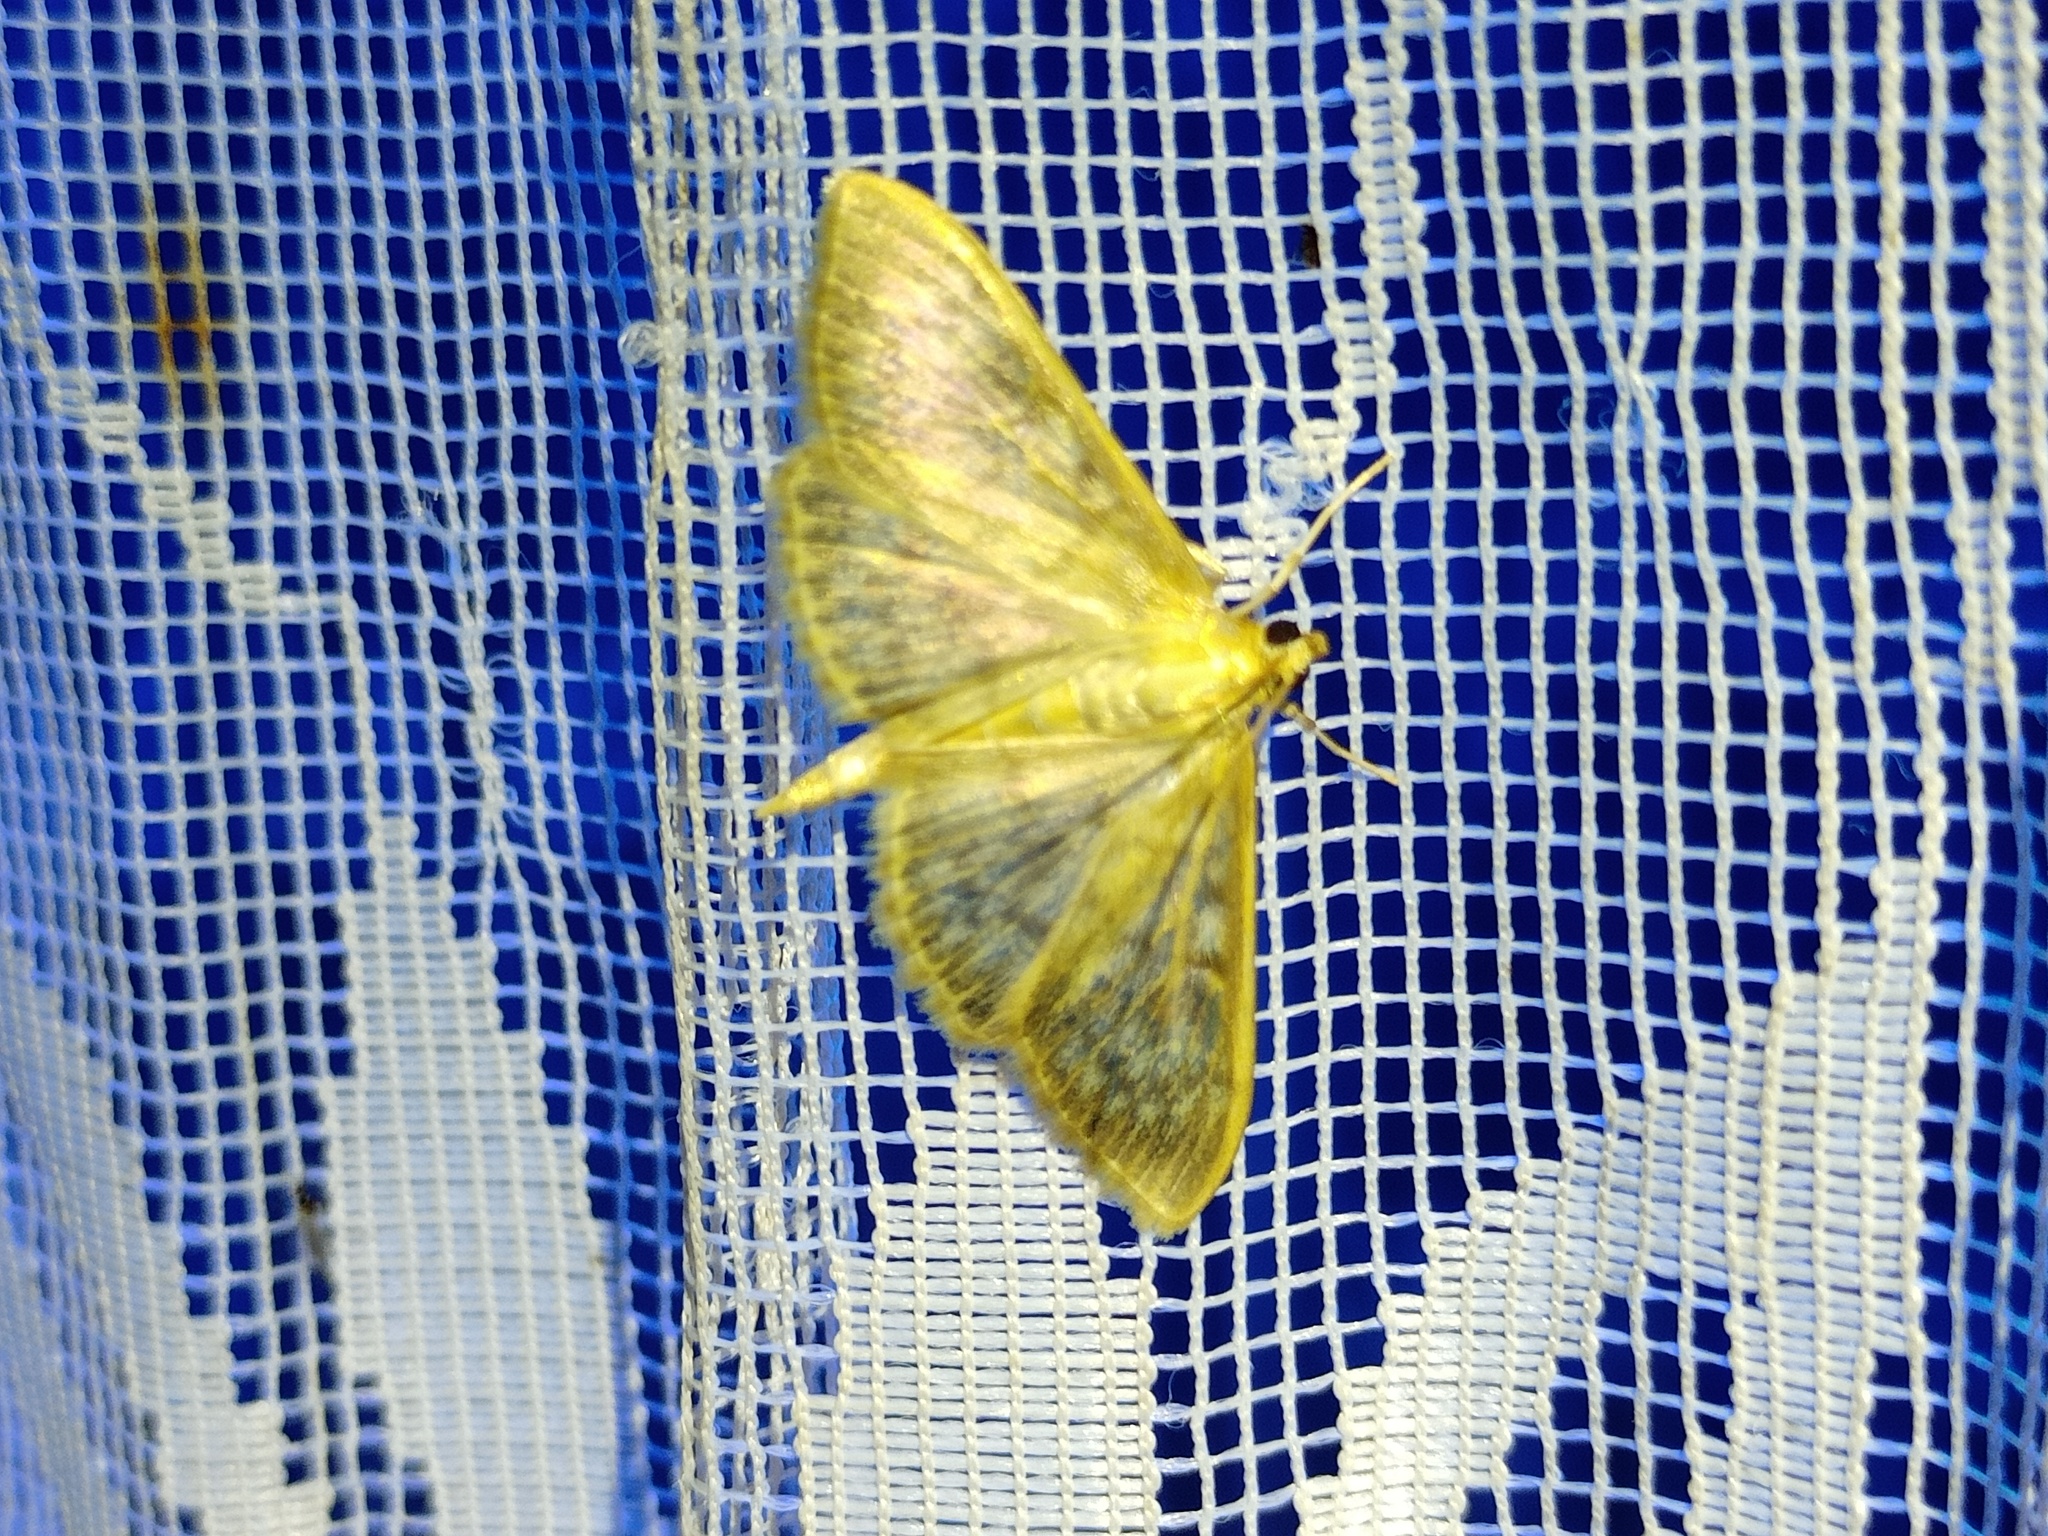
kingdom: Animalia
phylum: Arthropoda
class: Insecta
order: Lepidoptera
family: Crambidae
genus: Patania
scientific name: Patania ruralis
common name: Mother of pearl
